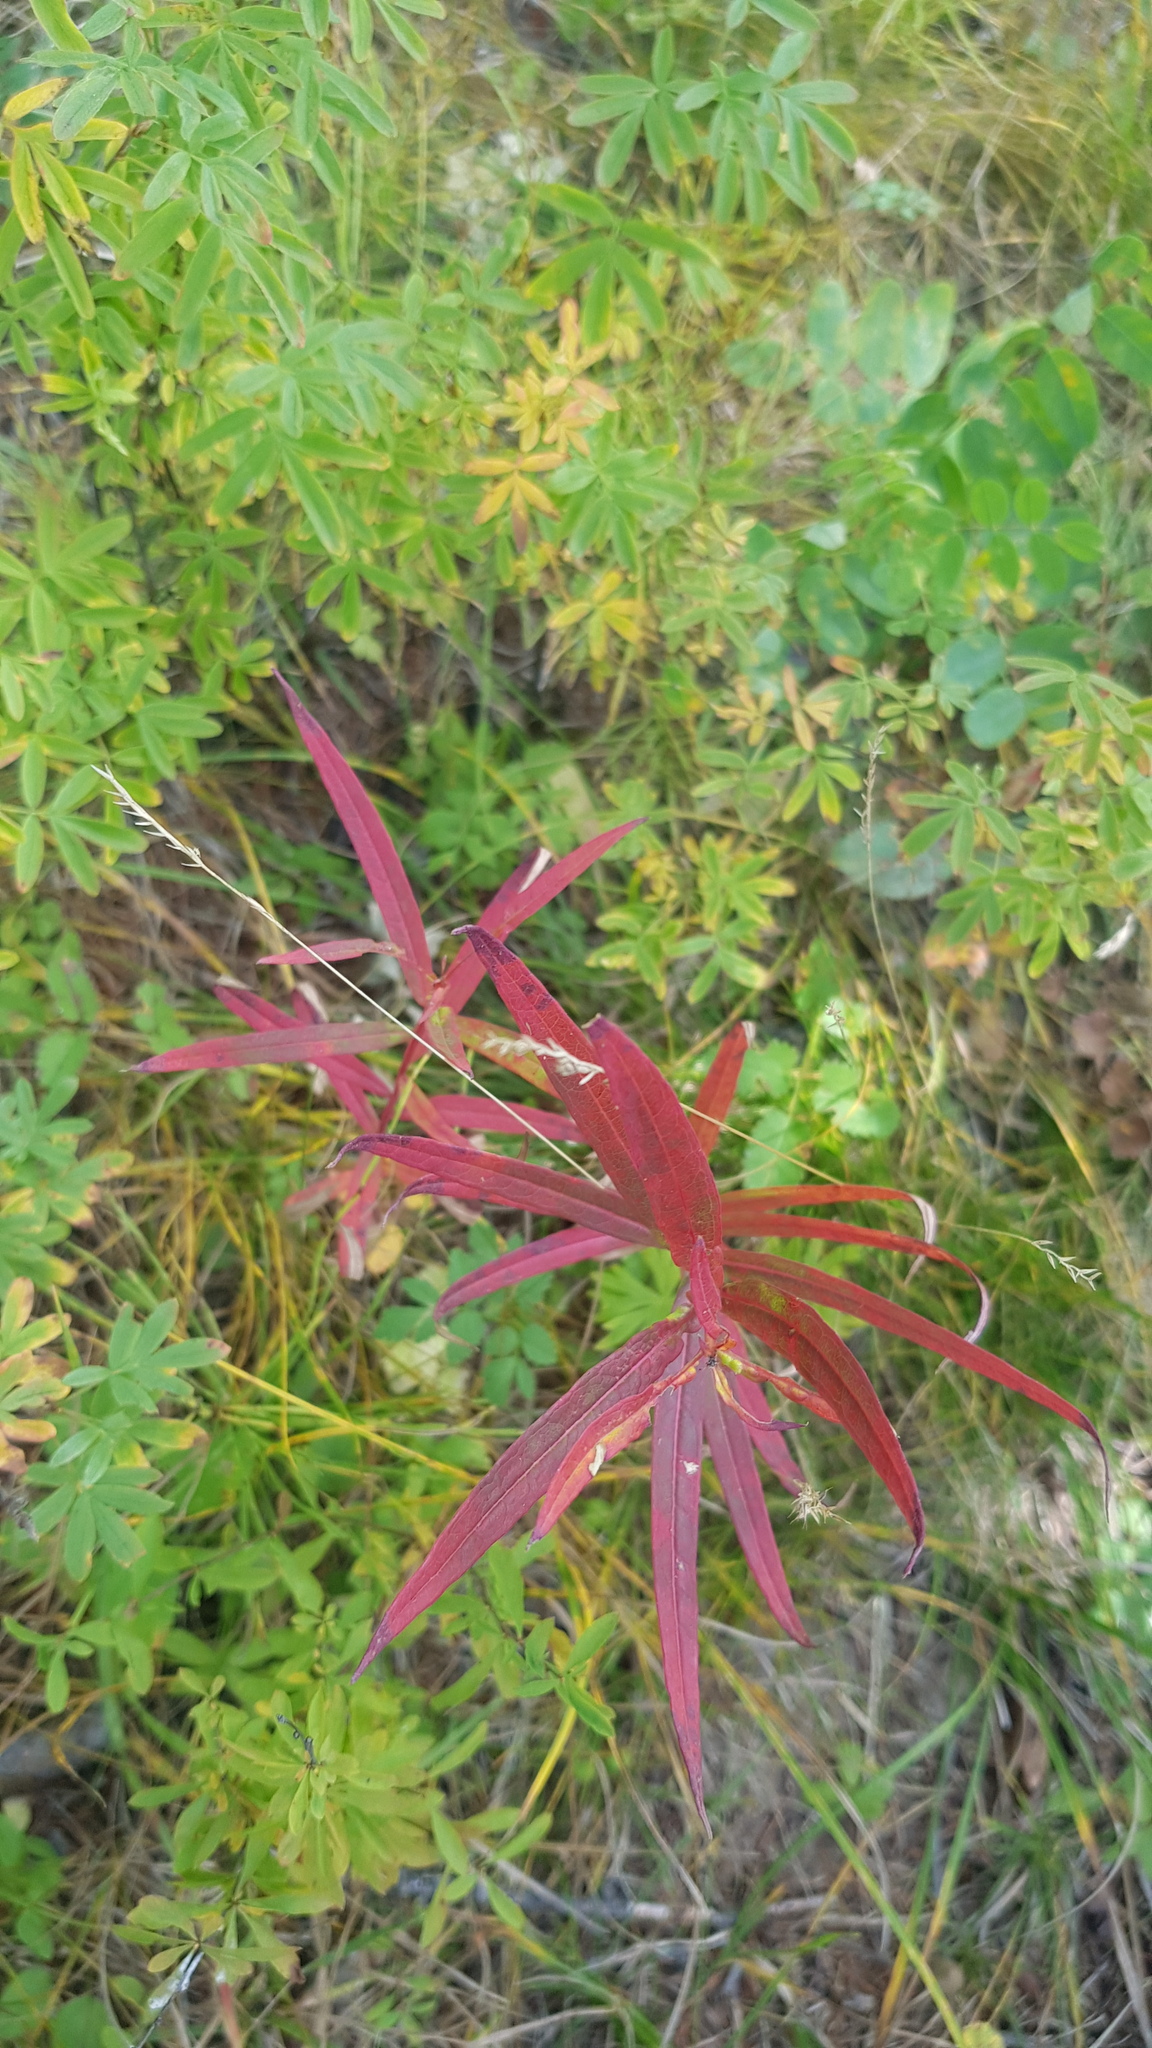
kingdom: Plantae
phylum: Tracheophyta
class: Magnoliopsida
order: Myrtales
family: Onagraceae
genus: Chamaenerion
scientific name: Chamaenerion angustifolium
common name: Fireweed
